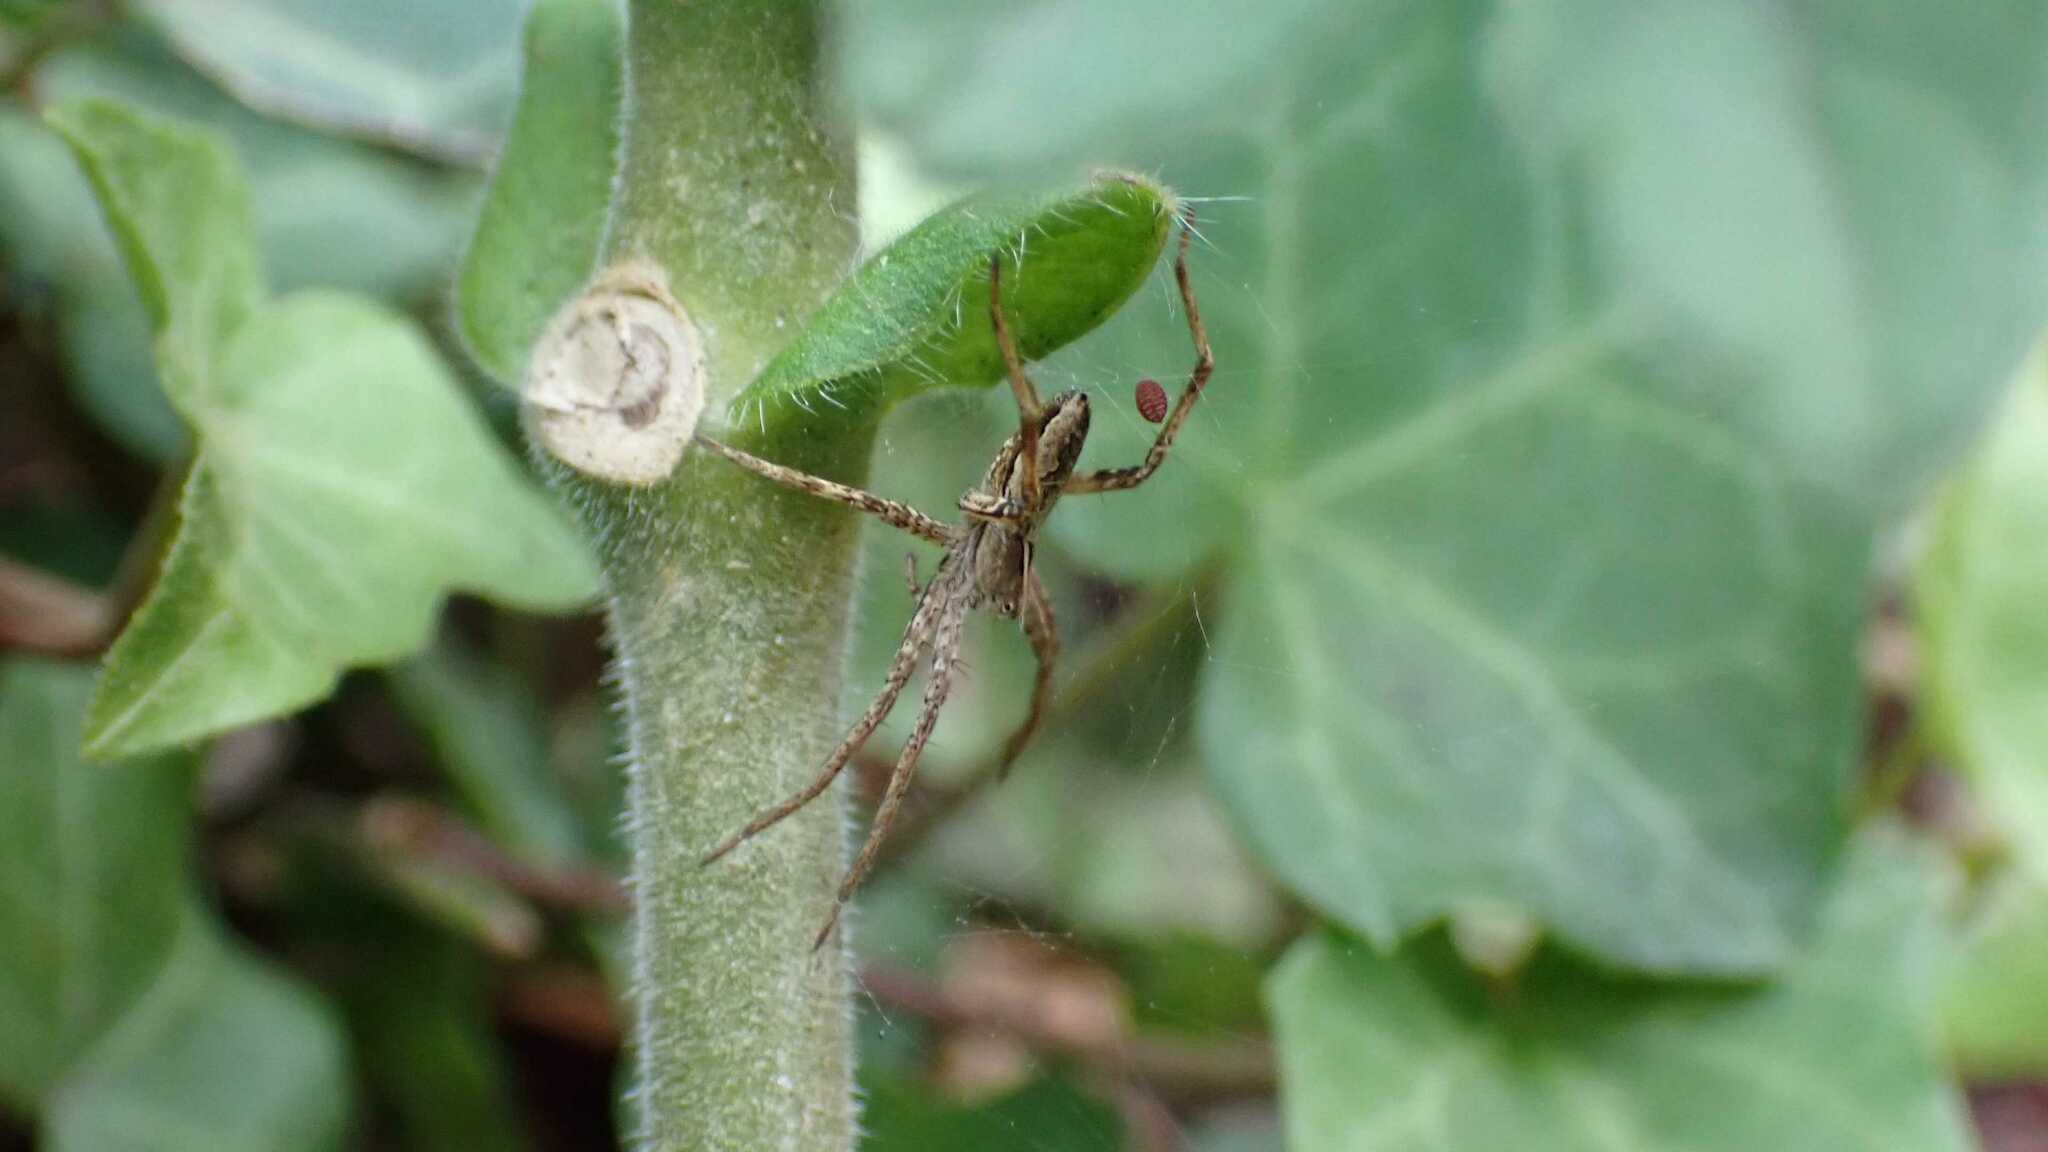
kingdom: Animalia
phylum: Arthropoda
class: Arachnida
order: Araneae
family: Pisauridae
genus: Pisaura
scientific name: Pisaura mirabilis
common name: Tent spider
